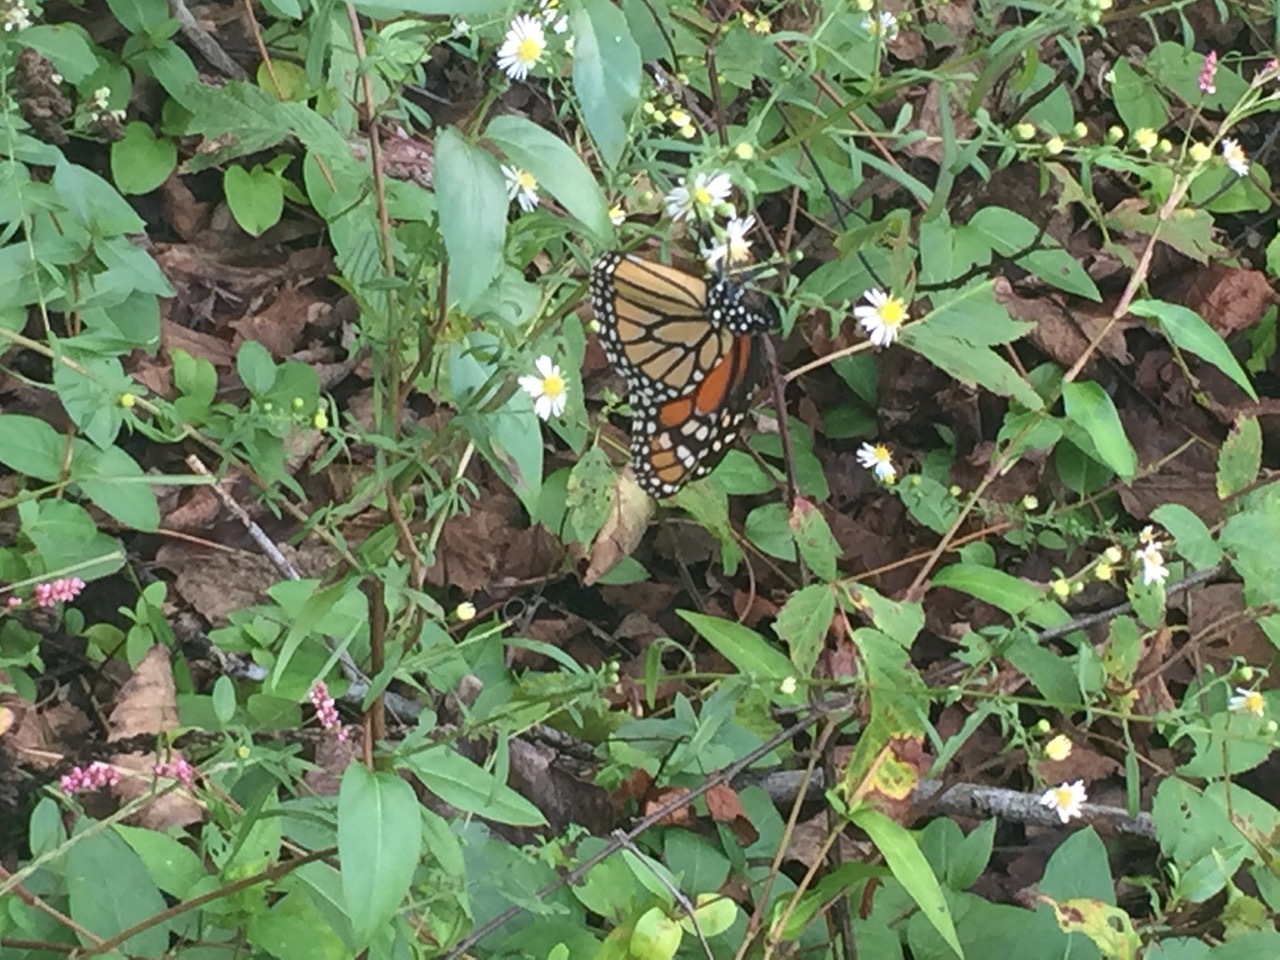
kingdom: Animalia
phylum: Arthropoda
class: Insecta
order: Lepidoptera
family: Nymphalidae
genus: Danaus
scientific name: Danaus plexippus
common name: Monarch
